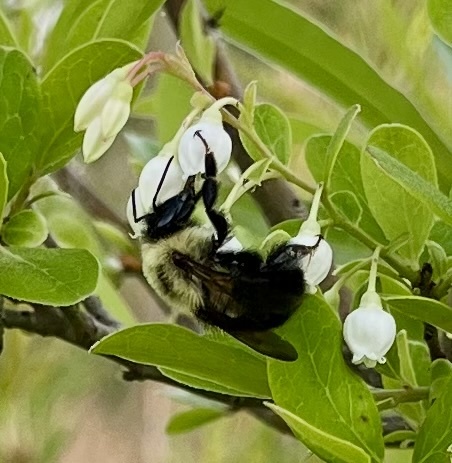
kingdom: Animalia
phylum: Arthropoda
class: Insecta
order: Hymenoptera
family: Apidae
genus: Bombus
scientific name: Bombus bimaculatus
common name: Two-spotted bumble bee
